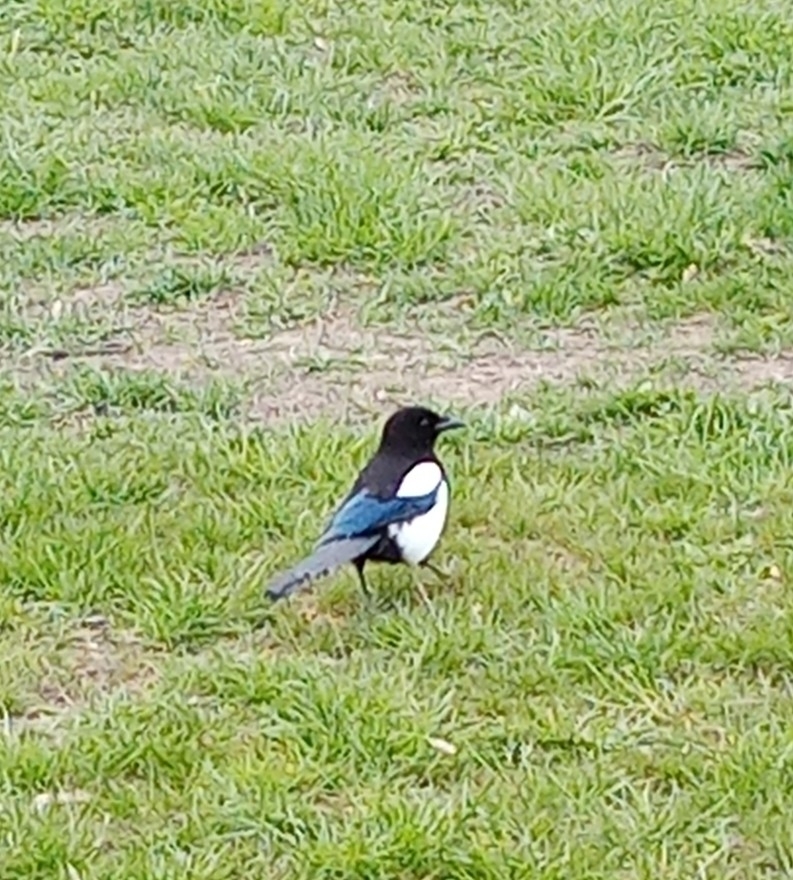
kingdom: Animalia
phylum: Chordata
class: Aves
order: Passeriformes
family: Corvidae
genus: Pica
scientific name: Pica pica
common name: Eurasian magpie
